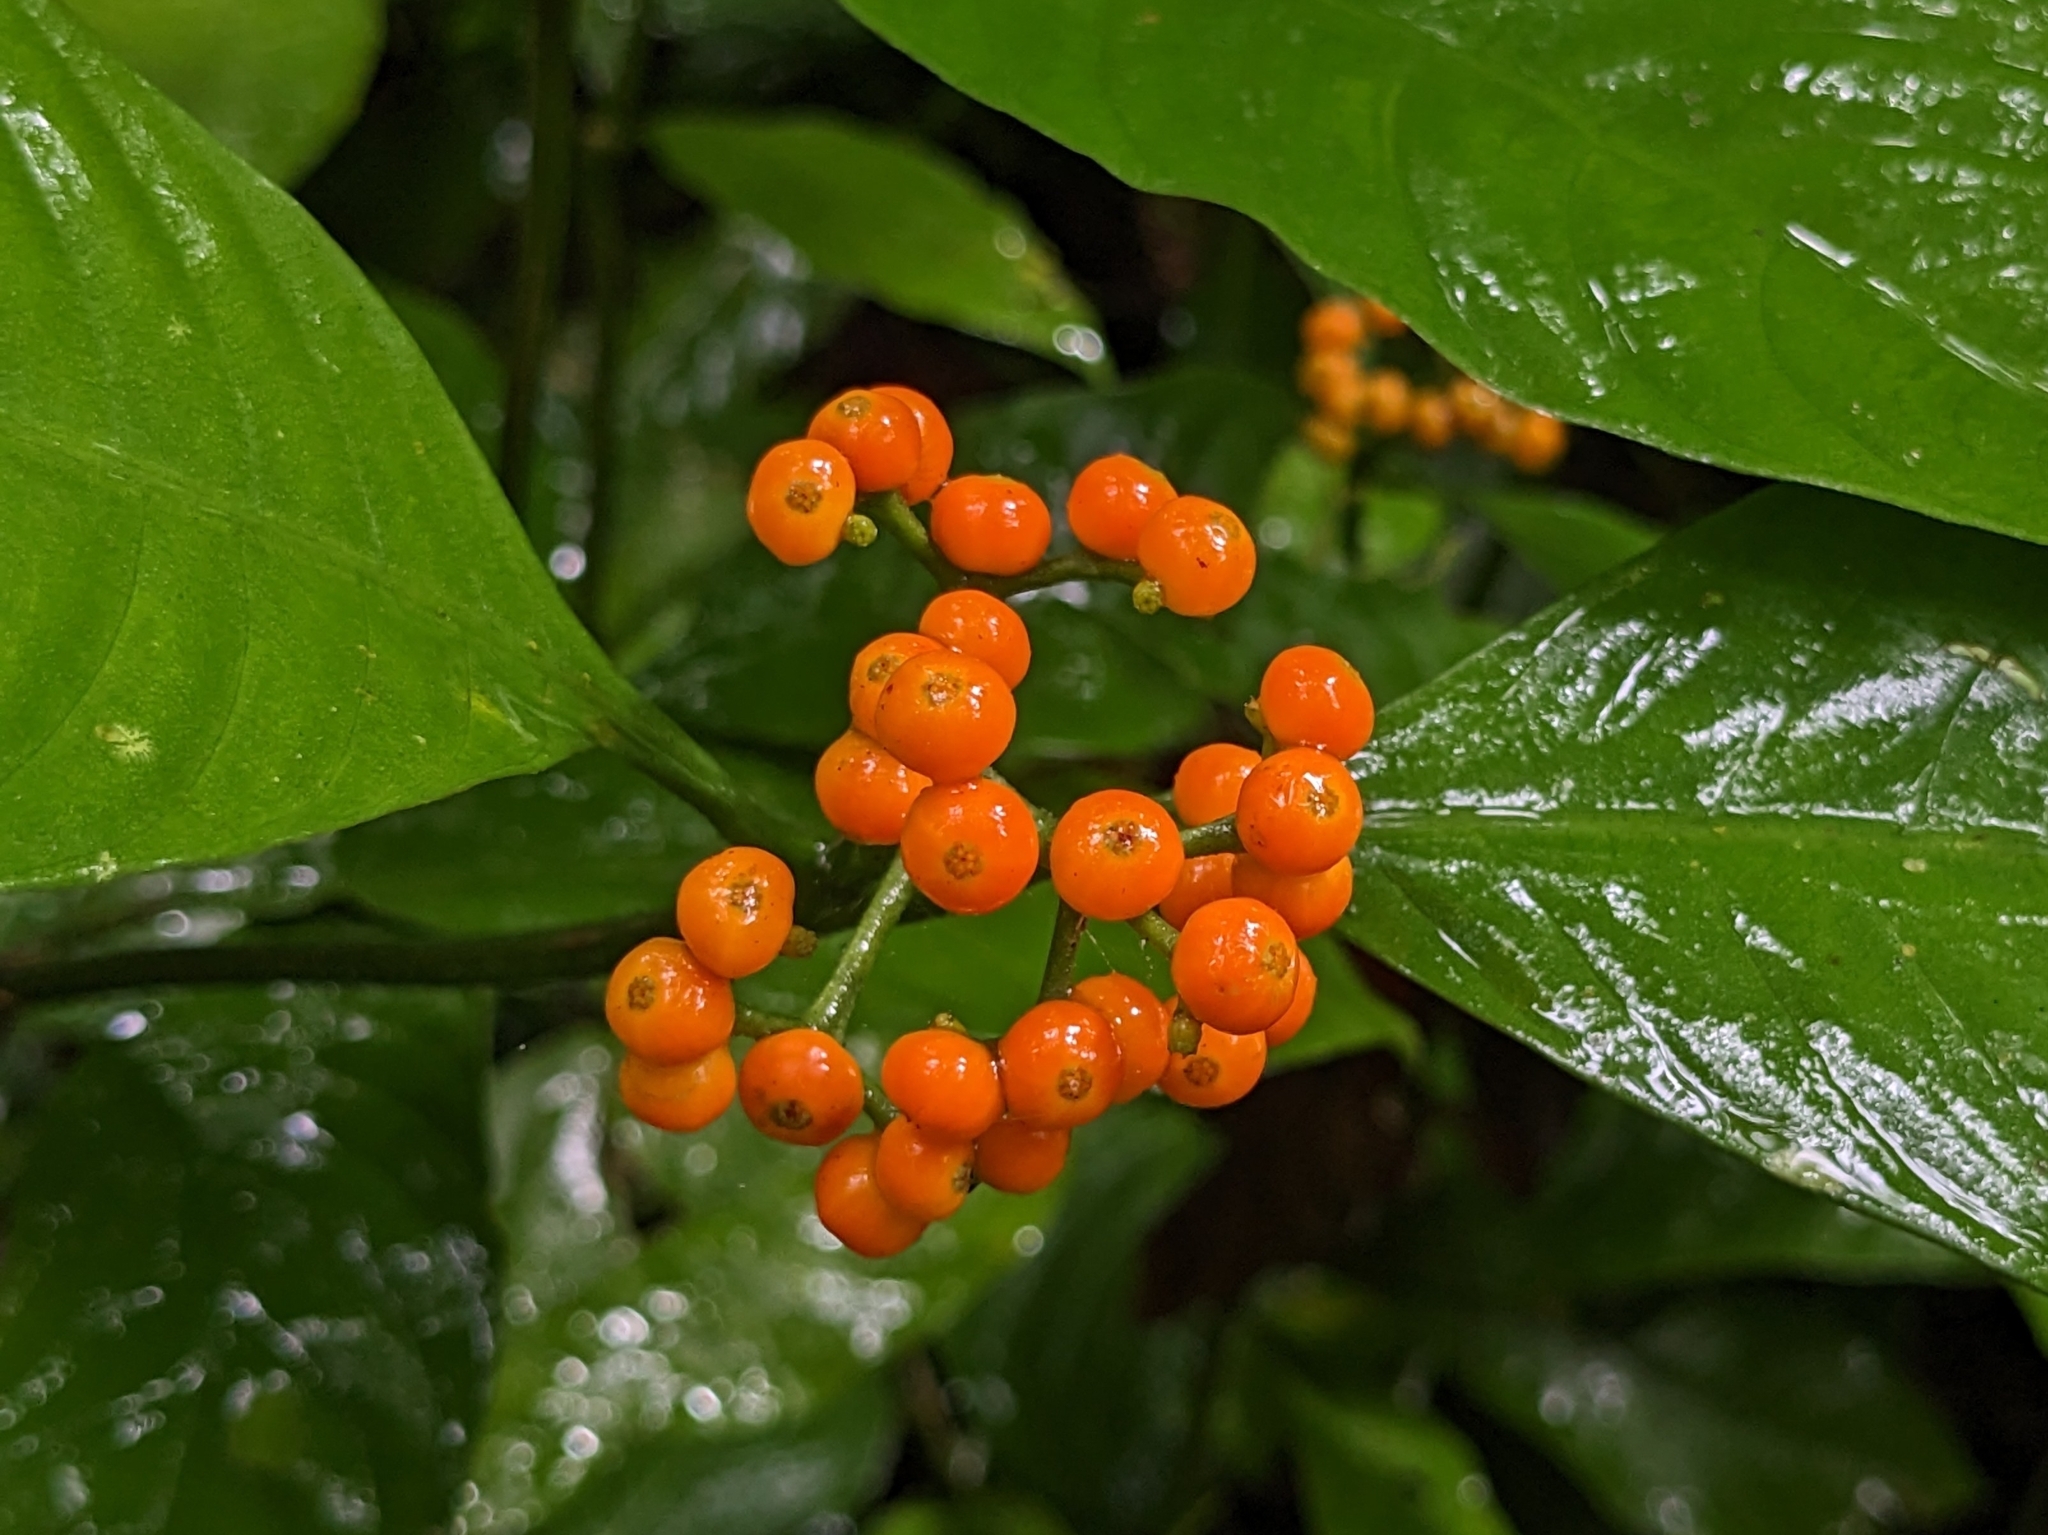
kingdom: Plantae
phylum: Tracheophyta
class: Magnoliopsida
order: Gentianales
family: Rubiaceae
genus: Palicourea
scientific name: Palicourea racemosa
